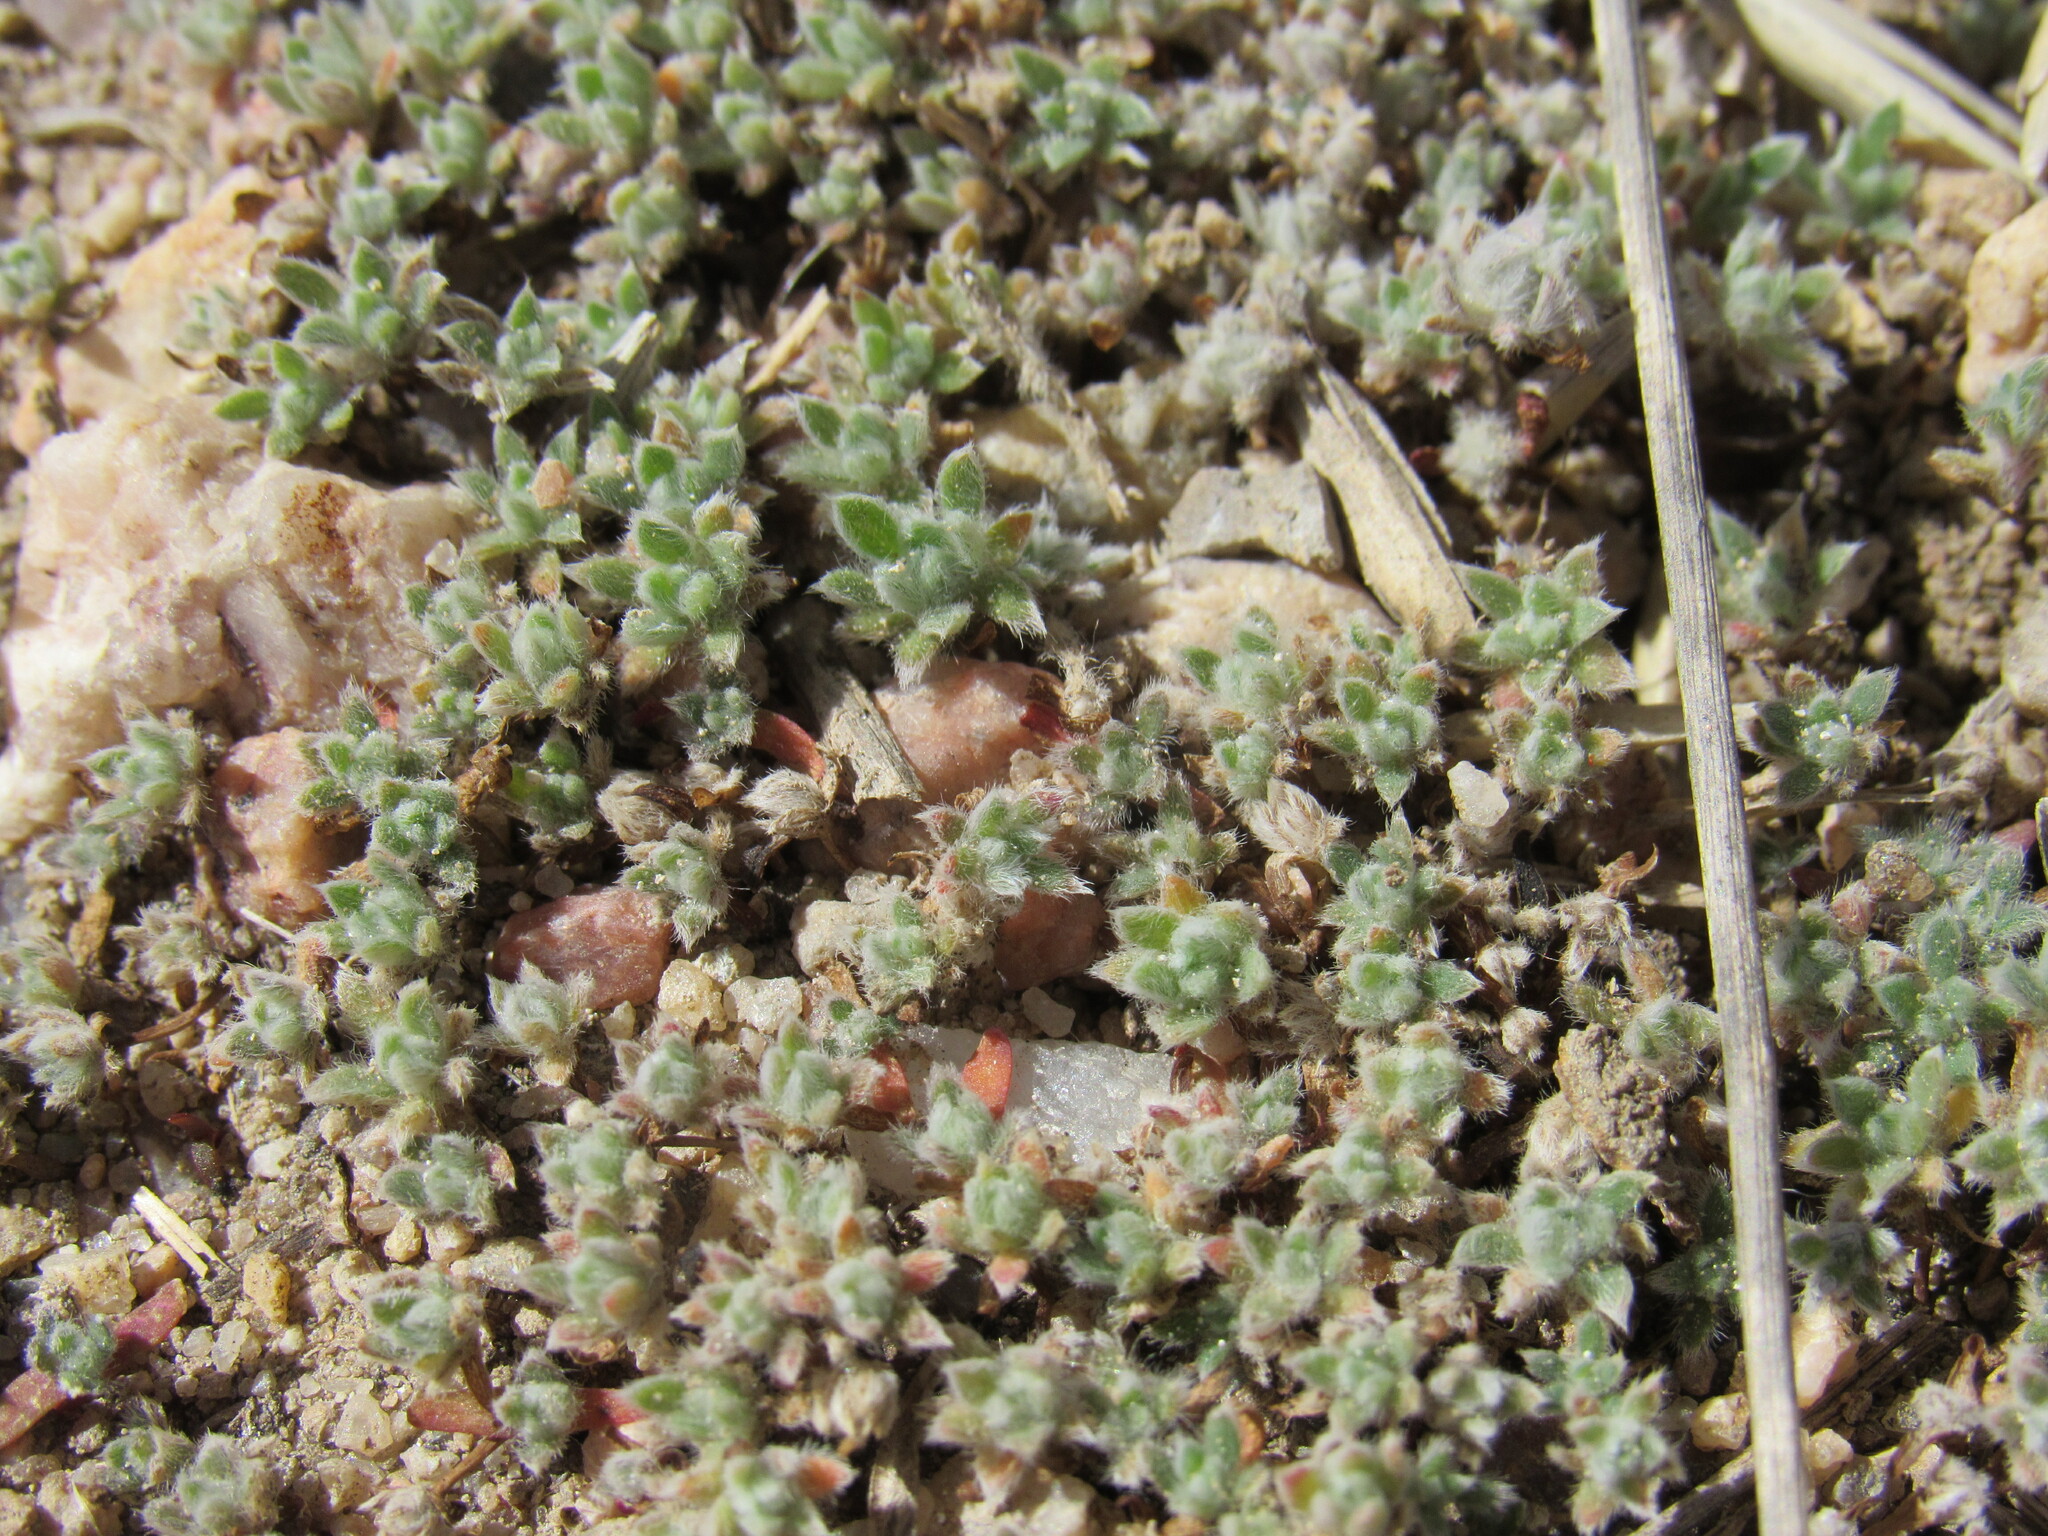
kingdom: Plantae
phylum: Tracheophyta
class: Magnoliopsida
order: Caryophyllales
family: Amaranthaceae
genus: Bassia
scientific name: Bassia scoparia
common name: Belvedere
